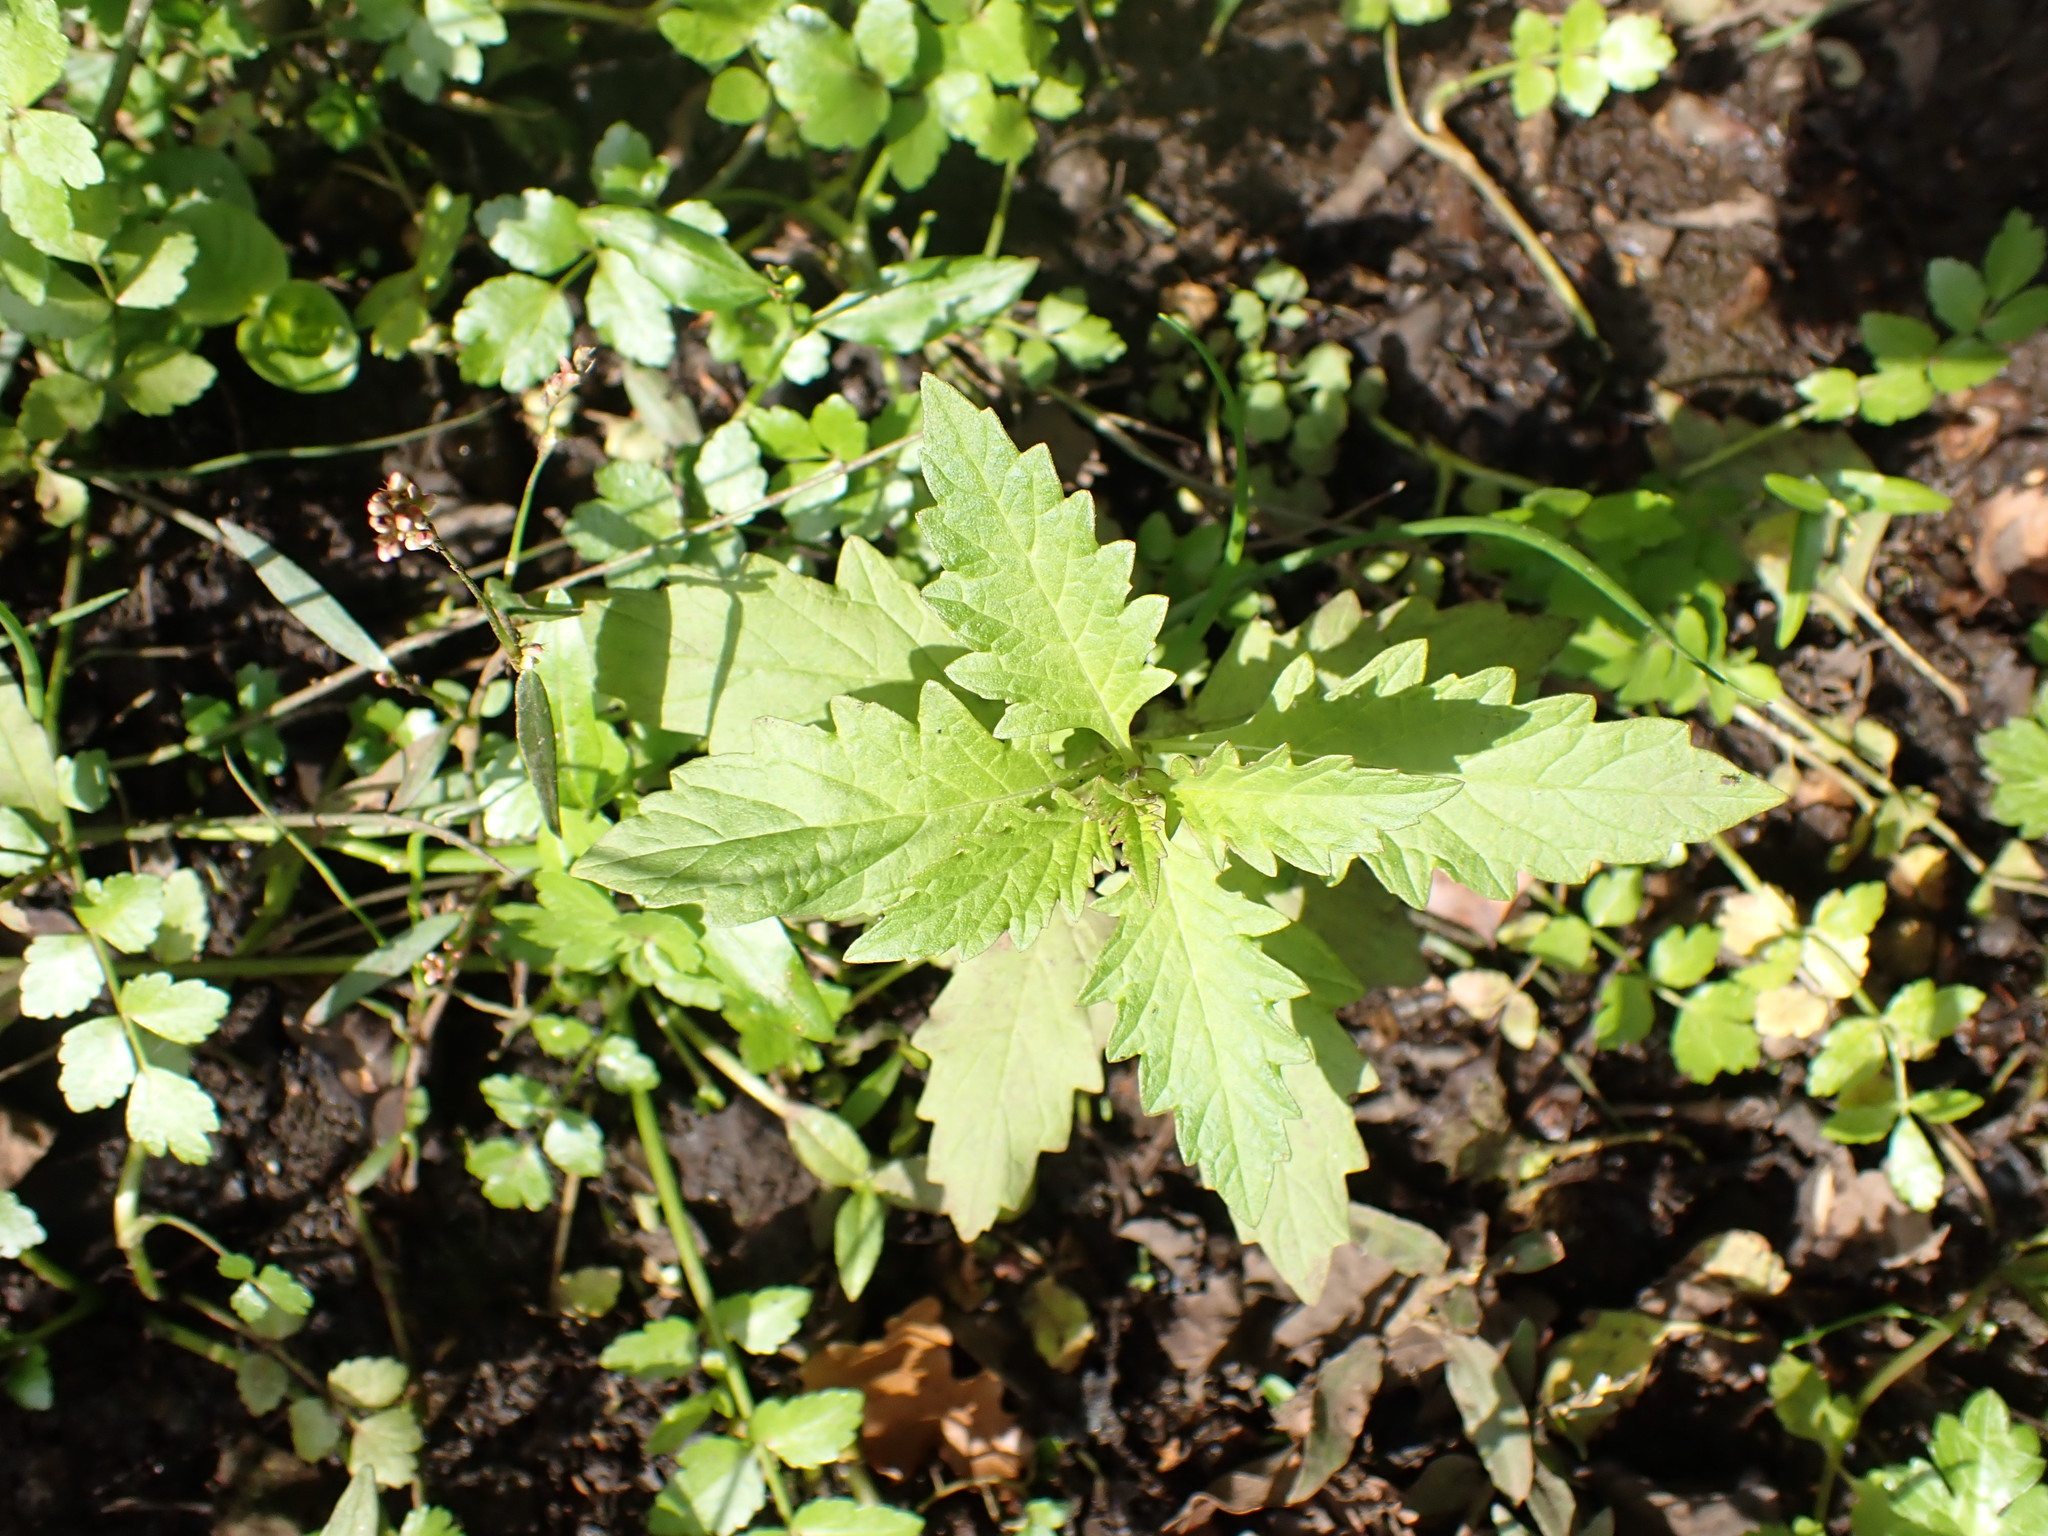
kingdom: Plantae
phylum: Tracheophyta
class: Magnoliopsida
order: Lamiales
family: Lamiaceae
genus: Lycopus
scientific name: Lycopus europaeus
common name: European bugleweed
